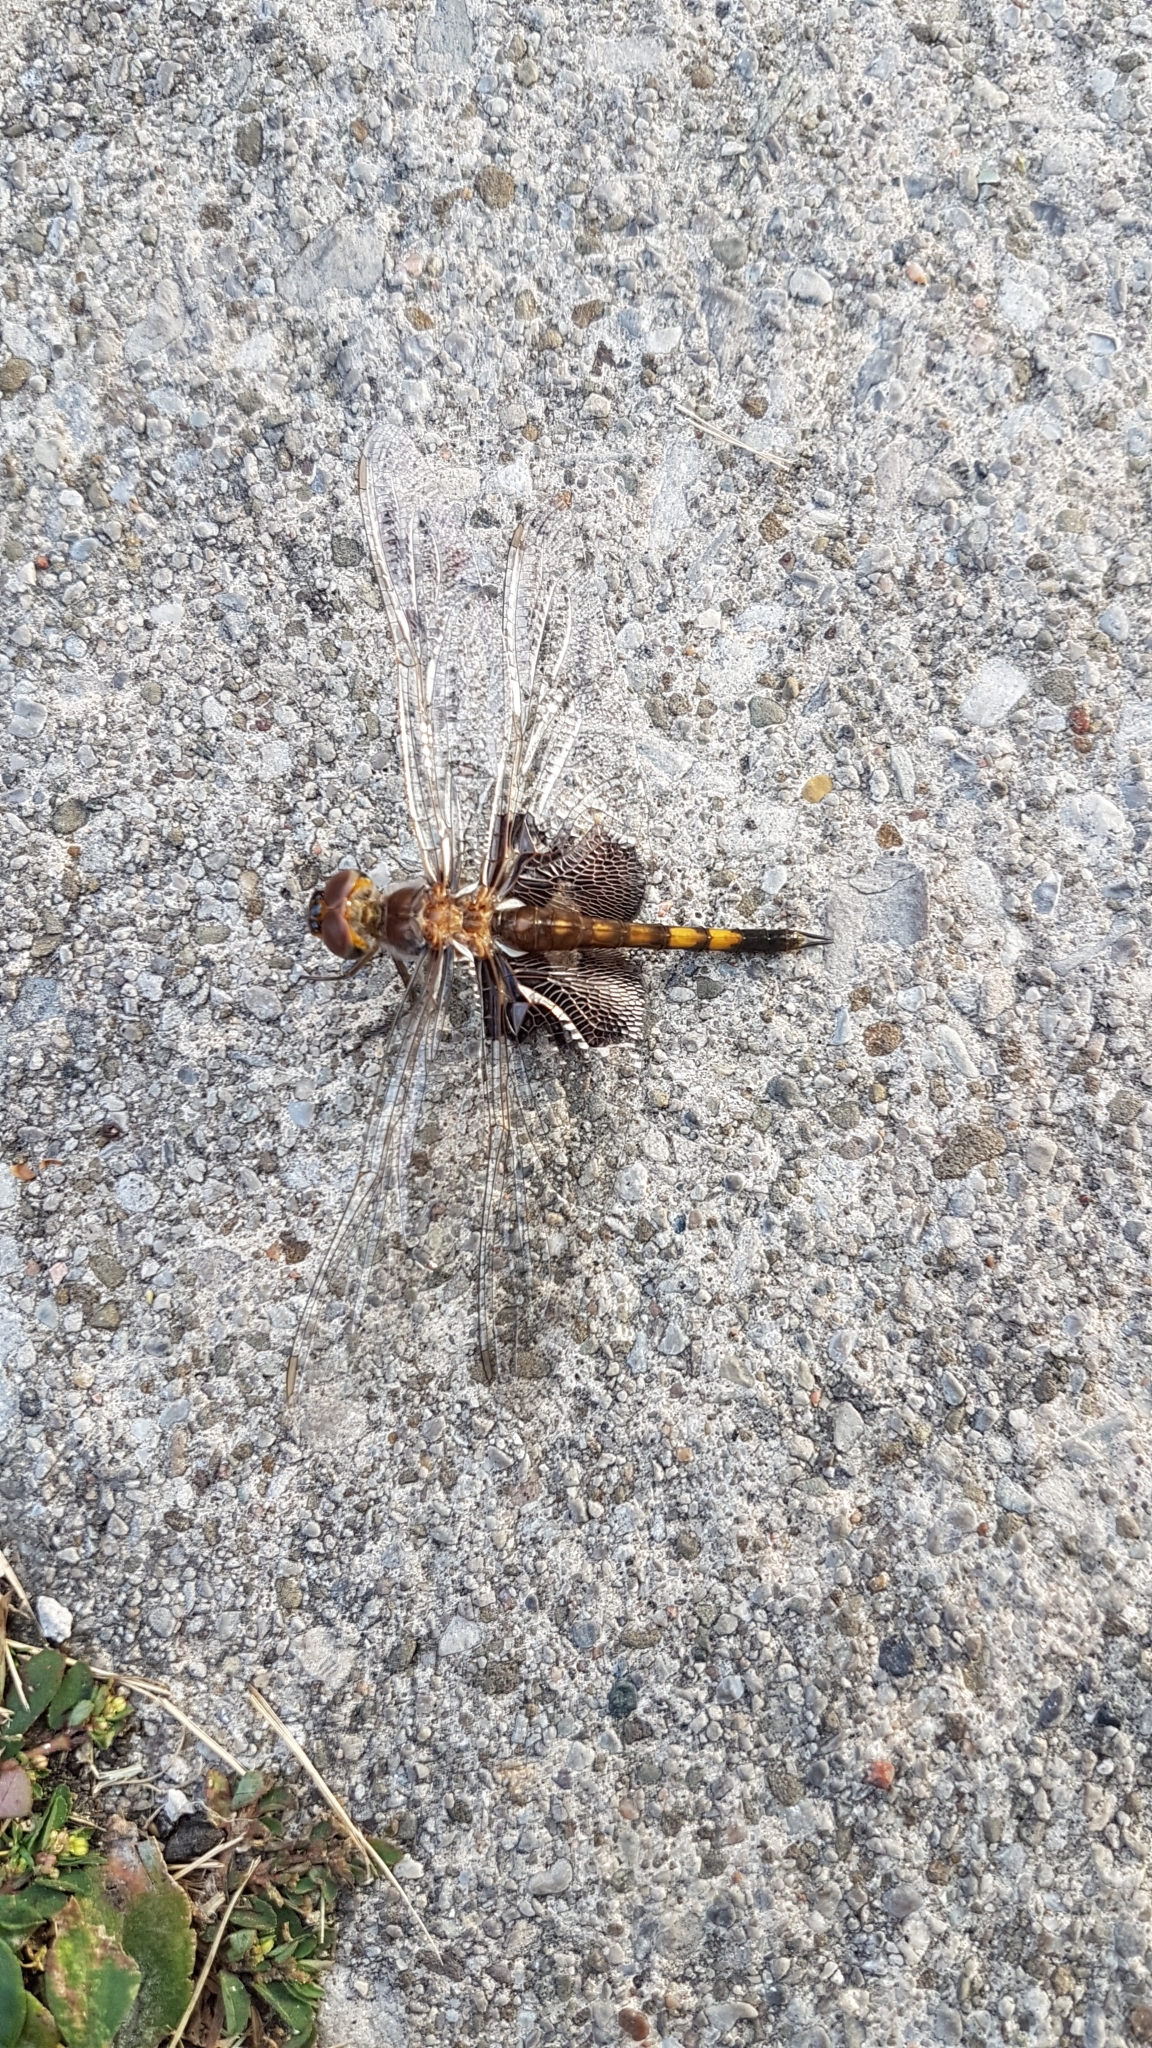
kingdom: Animalia
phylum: Arthropoda
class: Insecta
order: Odonata
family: Libellulidae
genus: Tramea
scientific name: Tramea lacerata
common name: Black saddlebags
